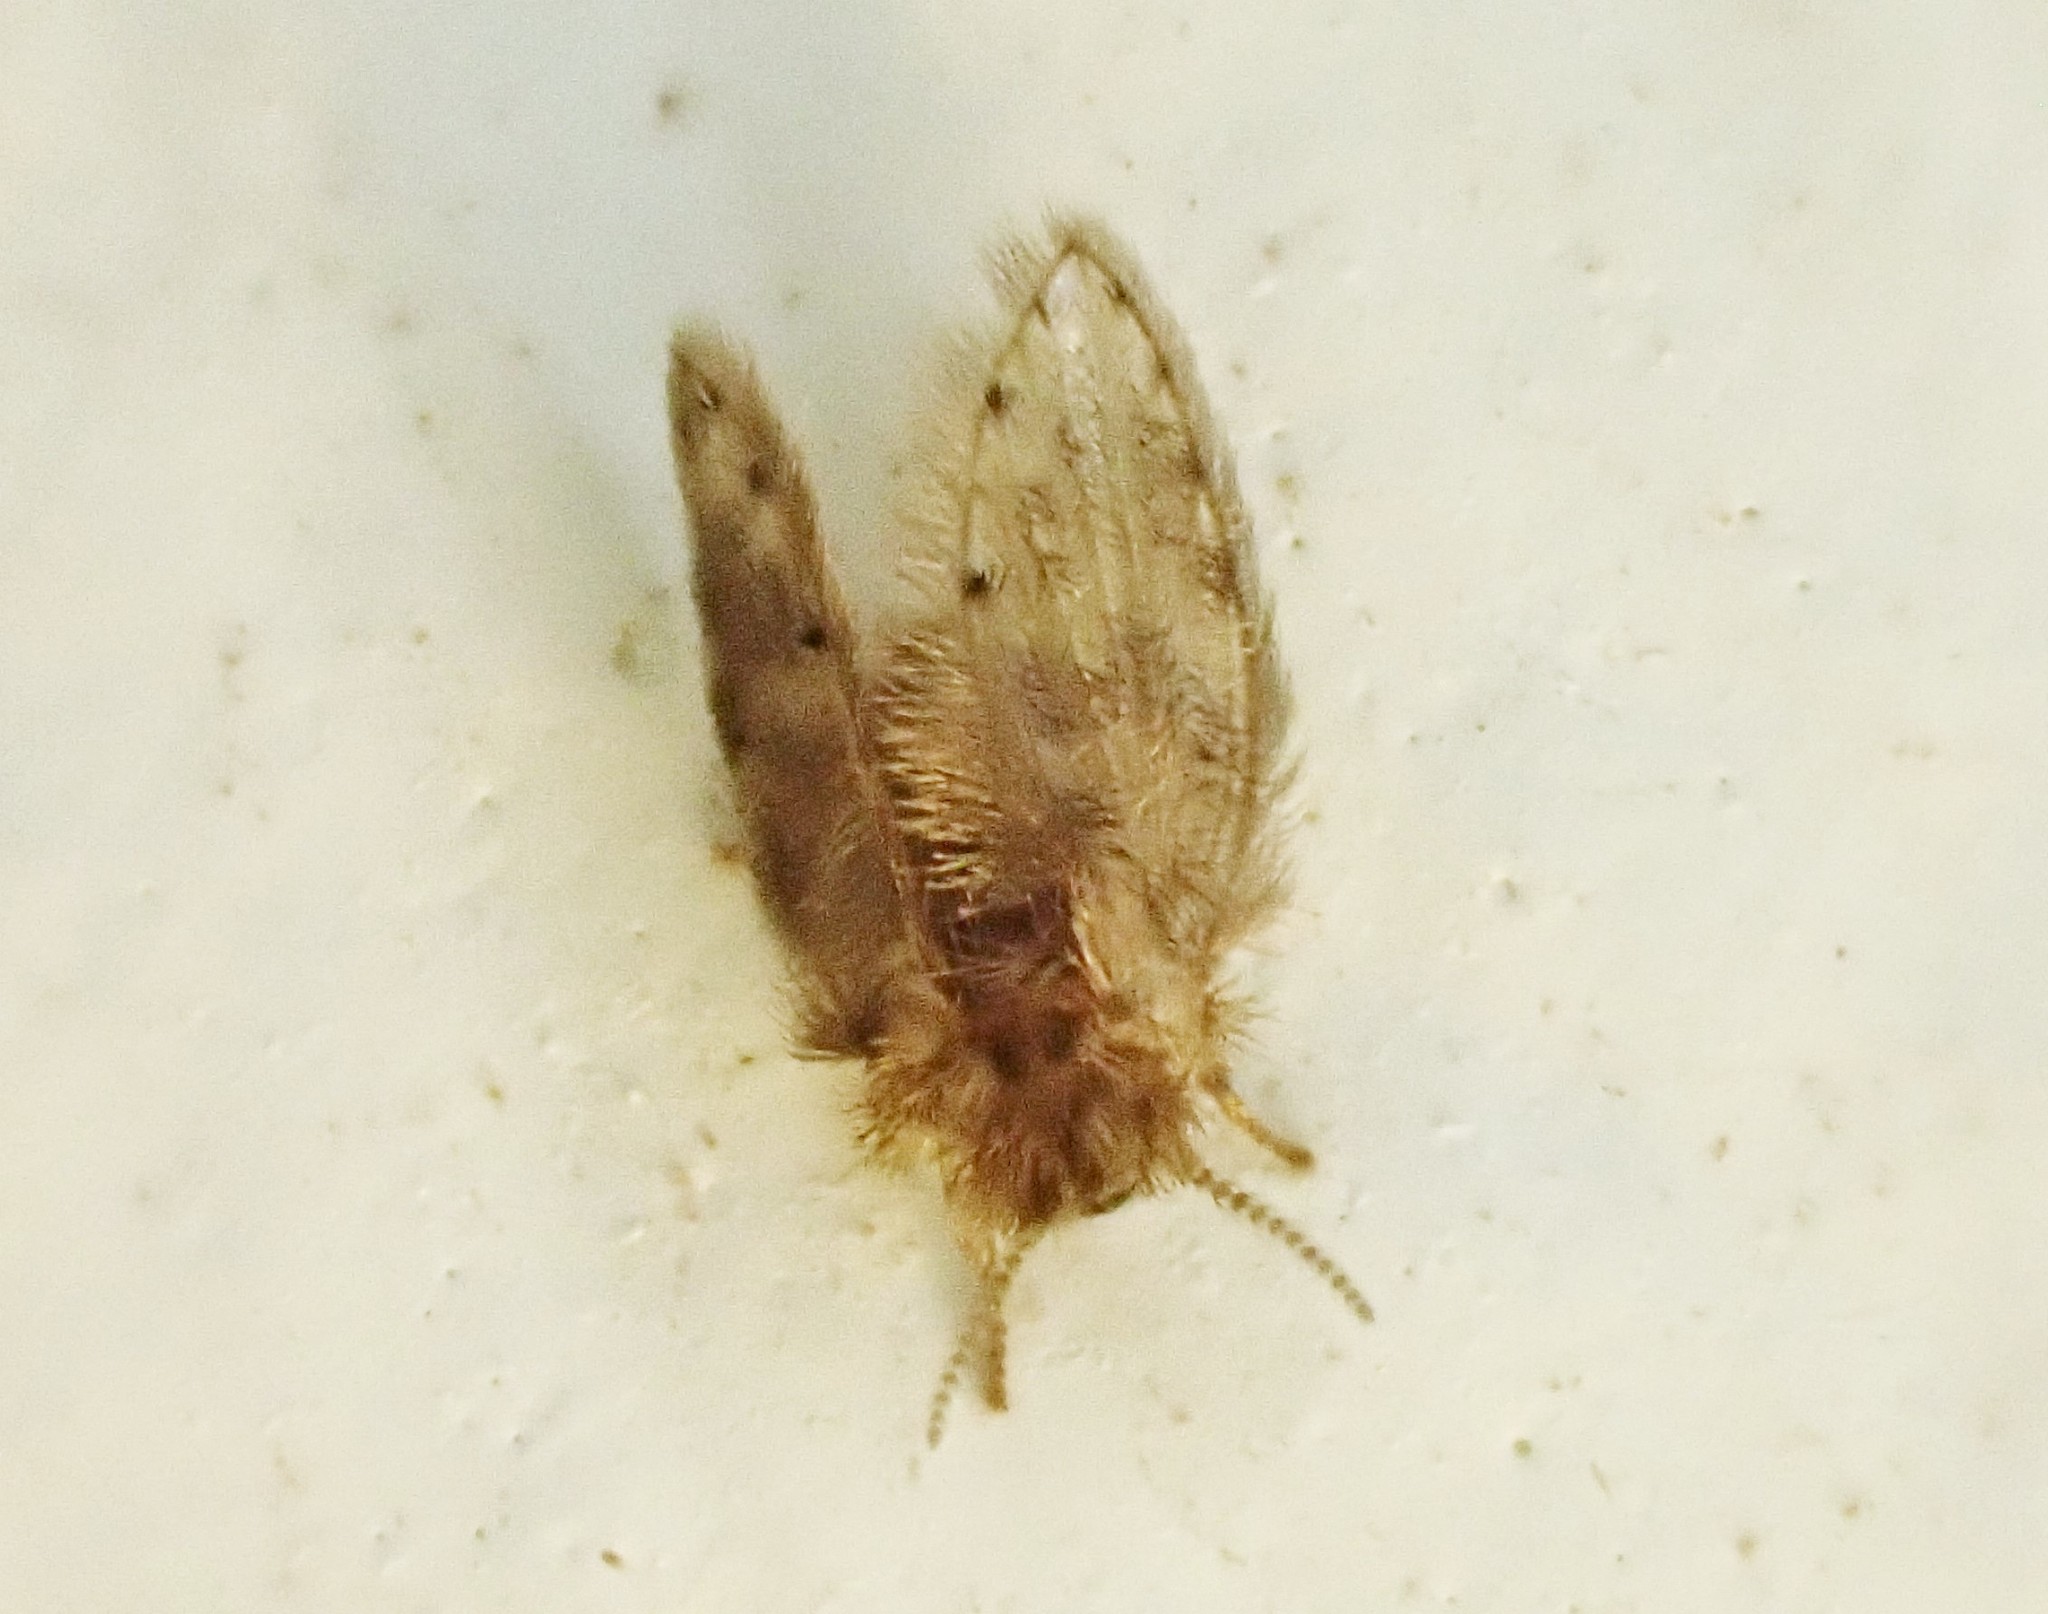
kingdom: Animalia
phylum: Arthropoda
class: Insecta
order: Diptera
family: Psychodidae
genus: Psychoda
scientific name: Psychoda alternata
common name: Moth fly
